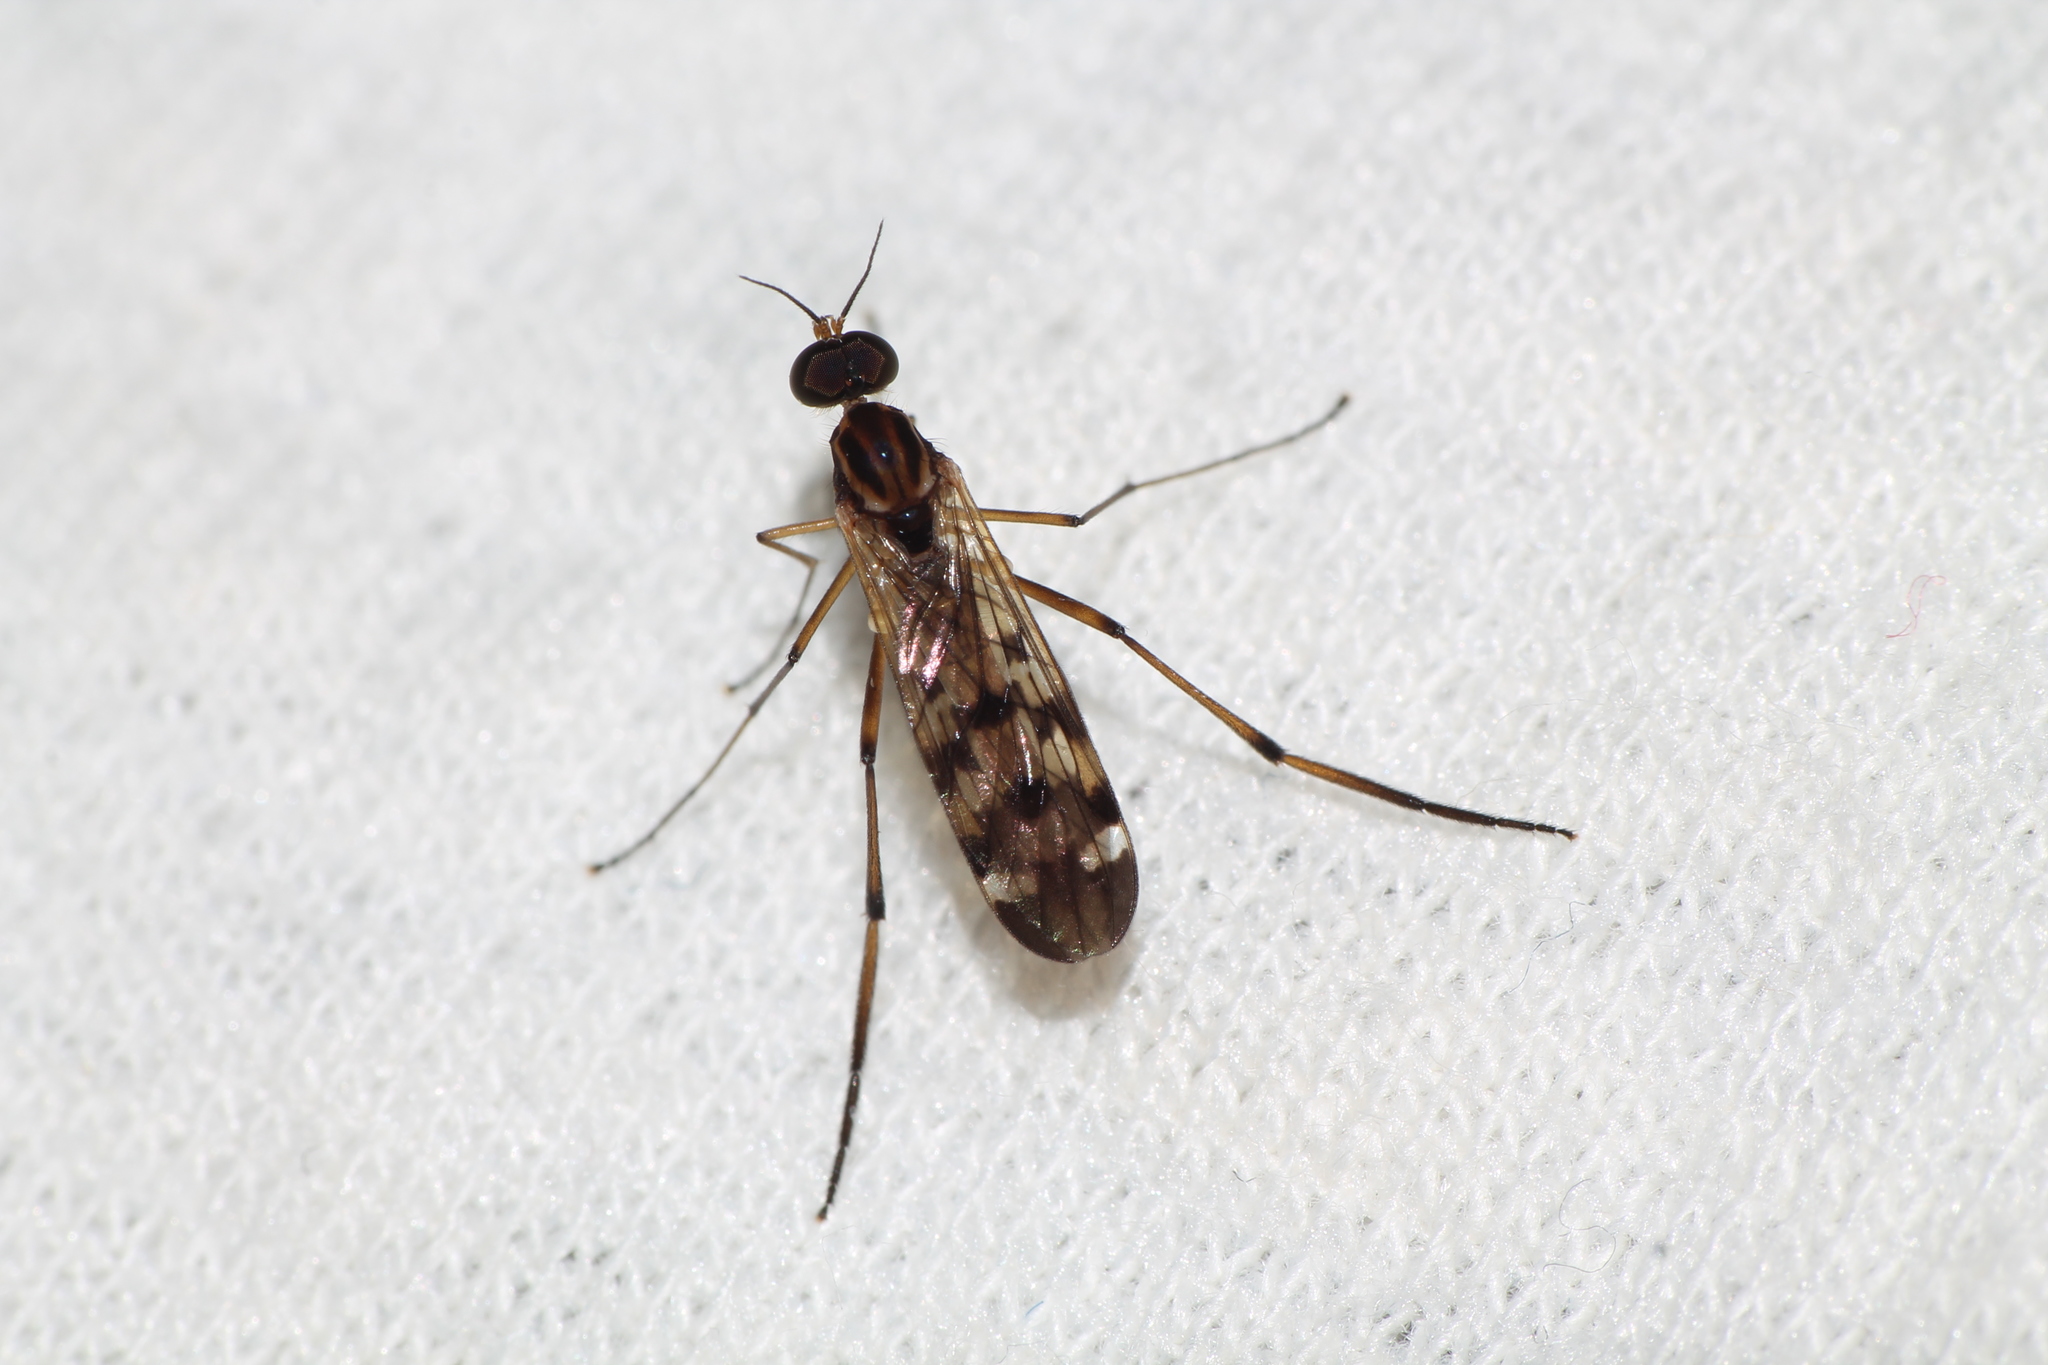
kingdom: Animalia
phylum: Arthropoda
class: Insecta
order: Diptera
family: Anisopodidae
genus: Sylvicola
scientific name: Sylvicola notatus
